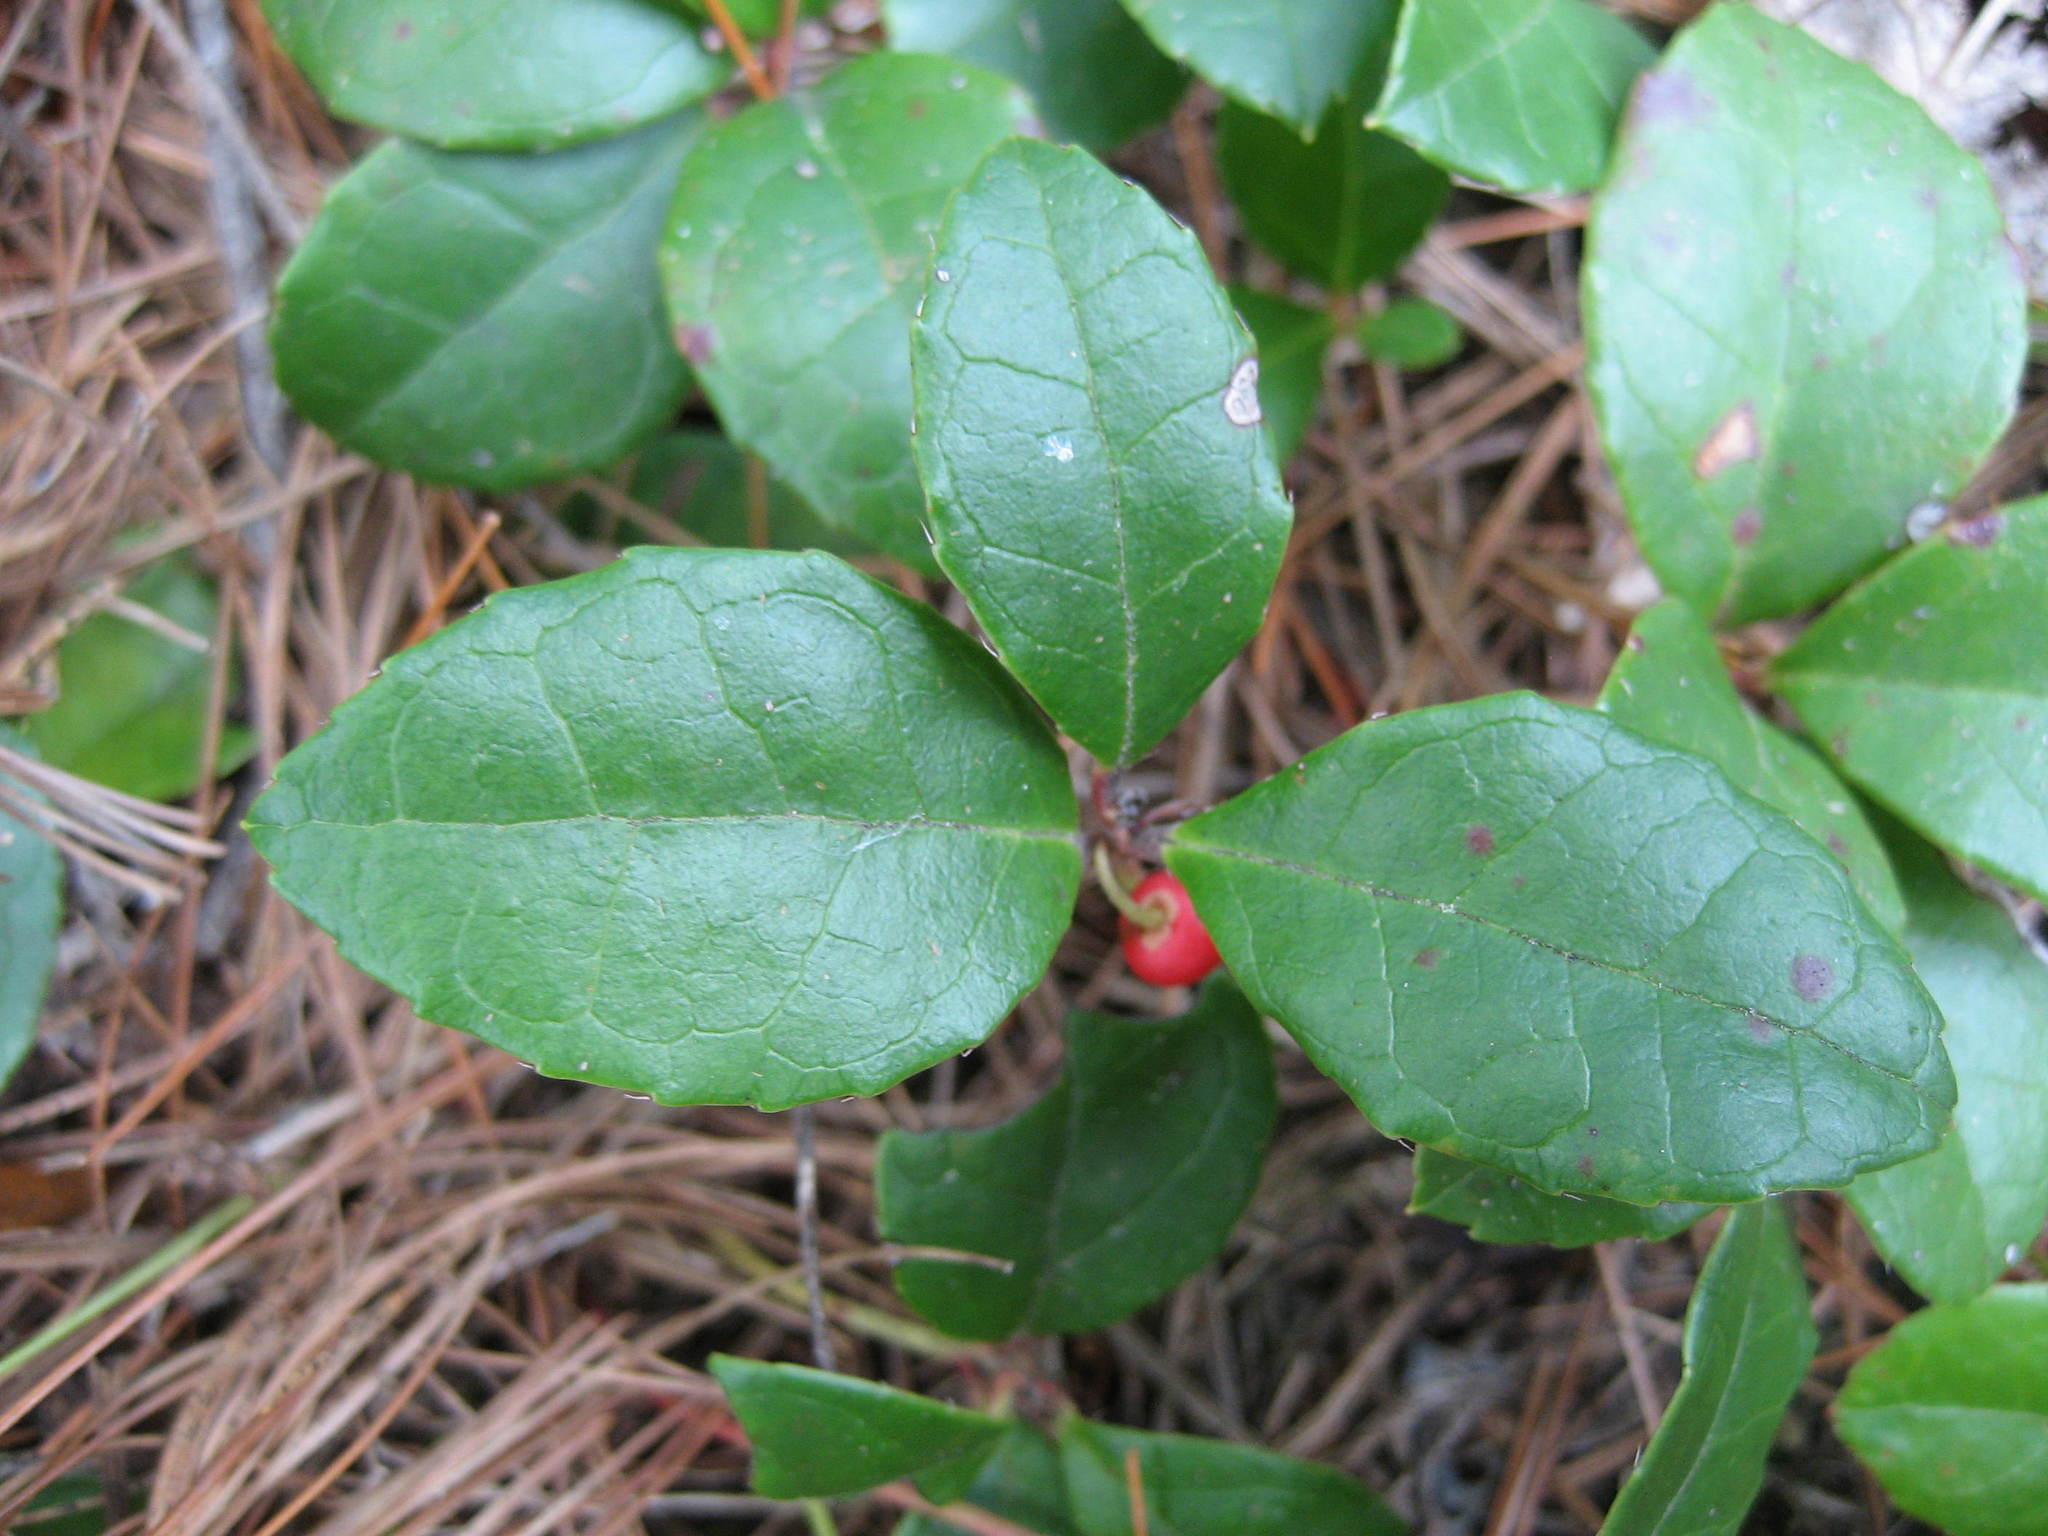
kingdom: Plantae
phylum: Tracheophyta
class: Magnoliopsida
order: Ericales
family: Ericaceae
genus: Gaultheria
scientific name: Gaultheria procumbens
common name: Checkerberry
